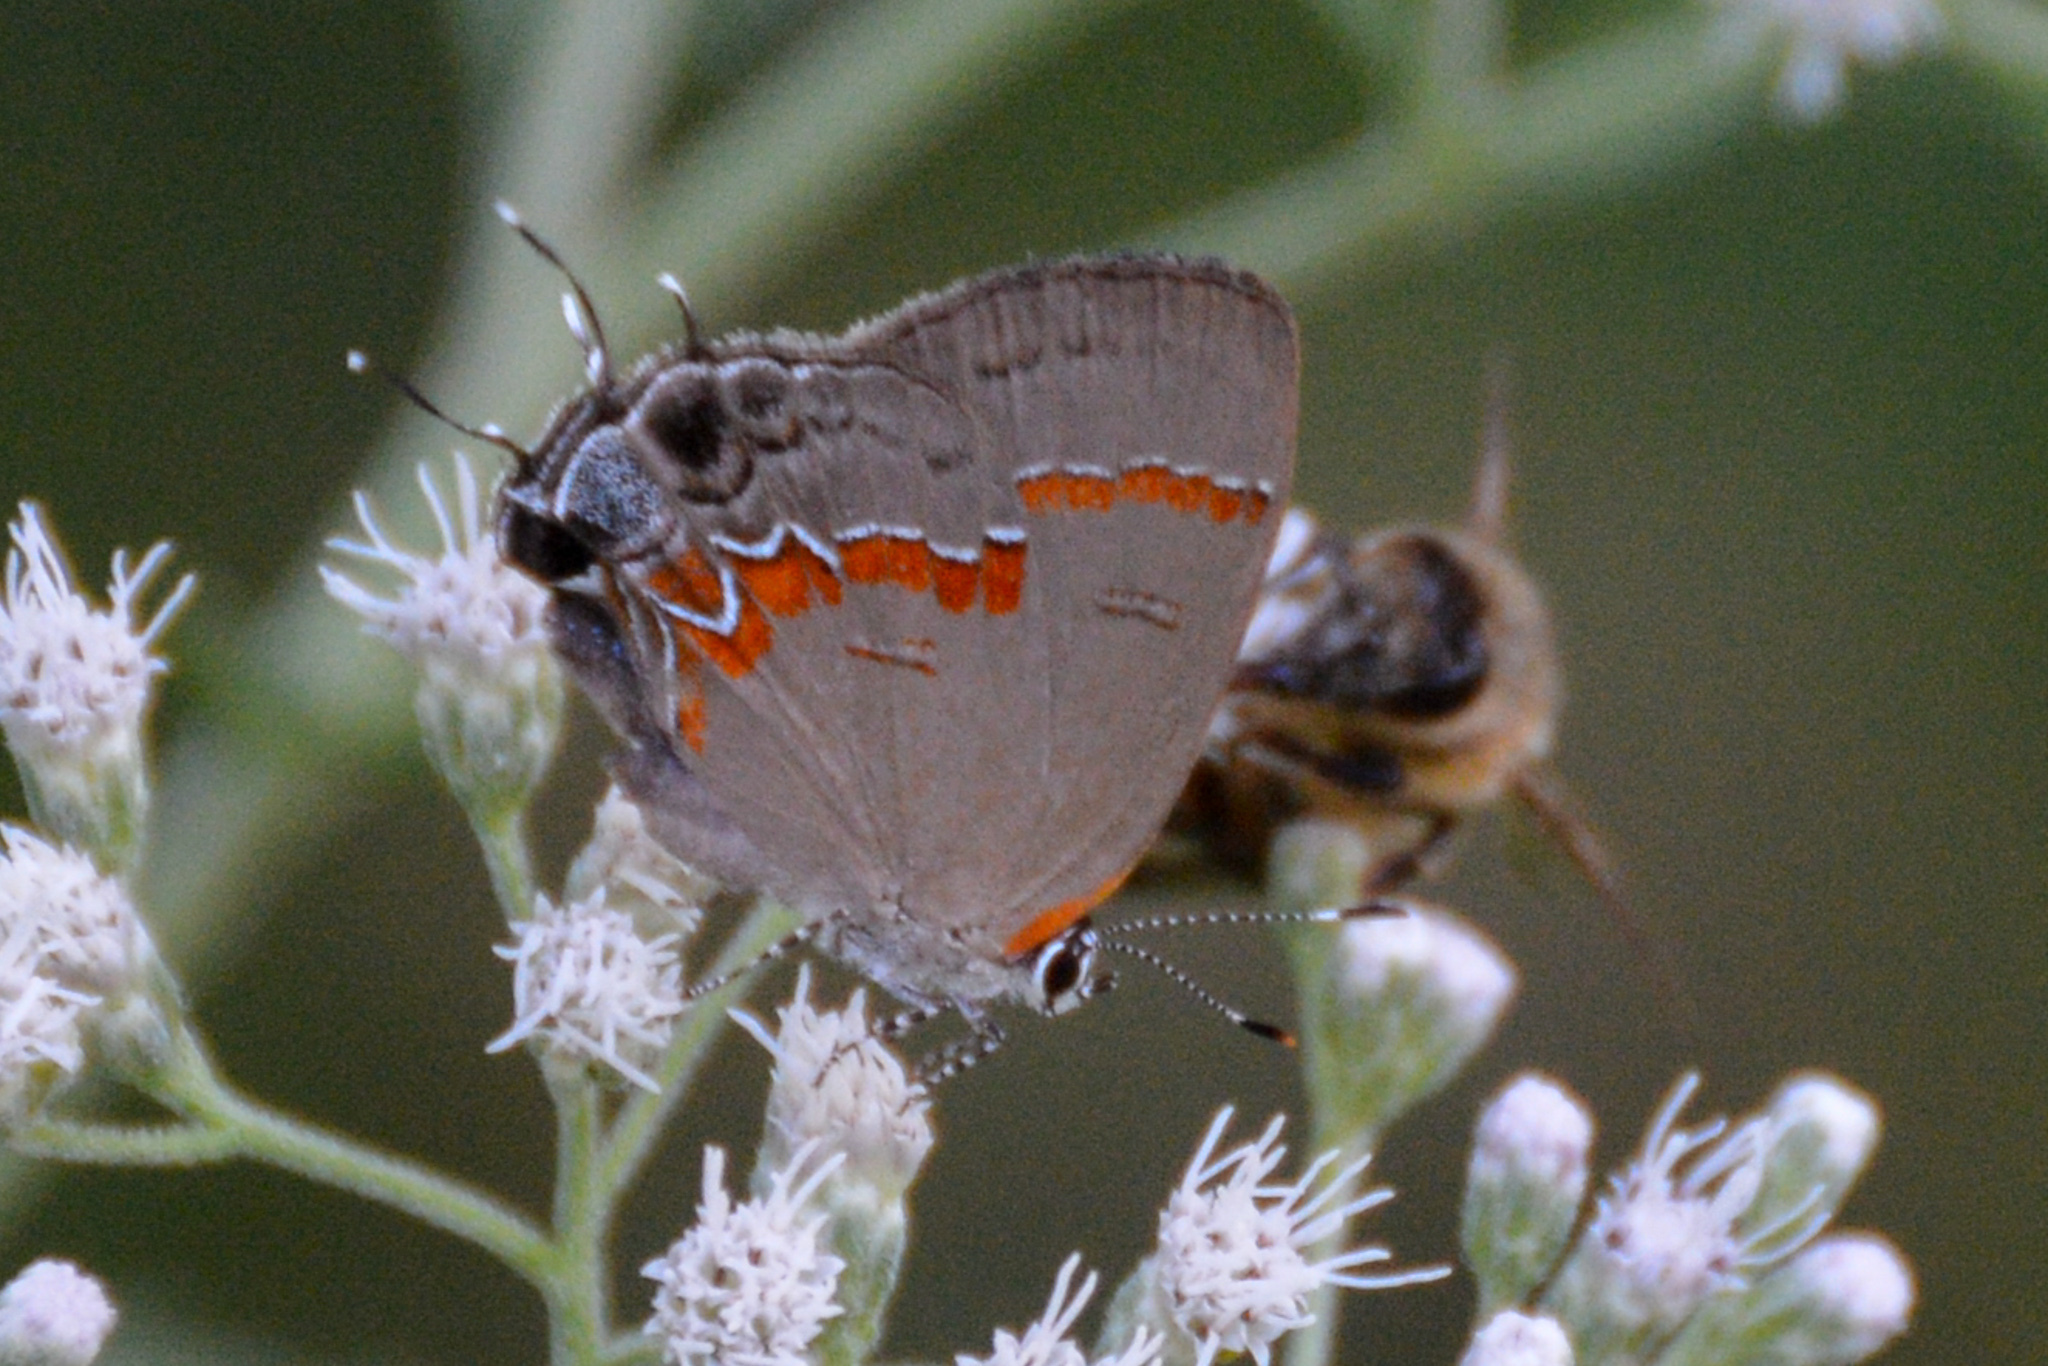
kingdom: Animalia
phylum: Arthropoda
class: Insecta
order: Lepidoptera
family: Lycaenidae
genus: Calycopis
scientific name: Calycopis cecrops
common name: Red-banded hairstreak
